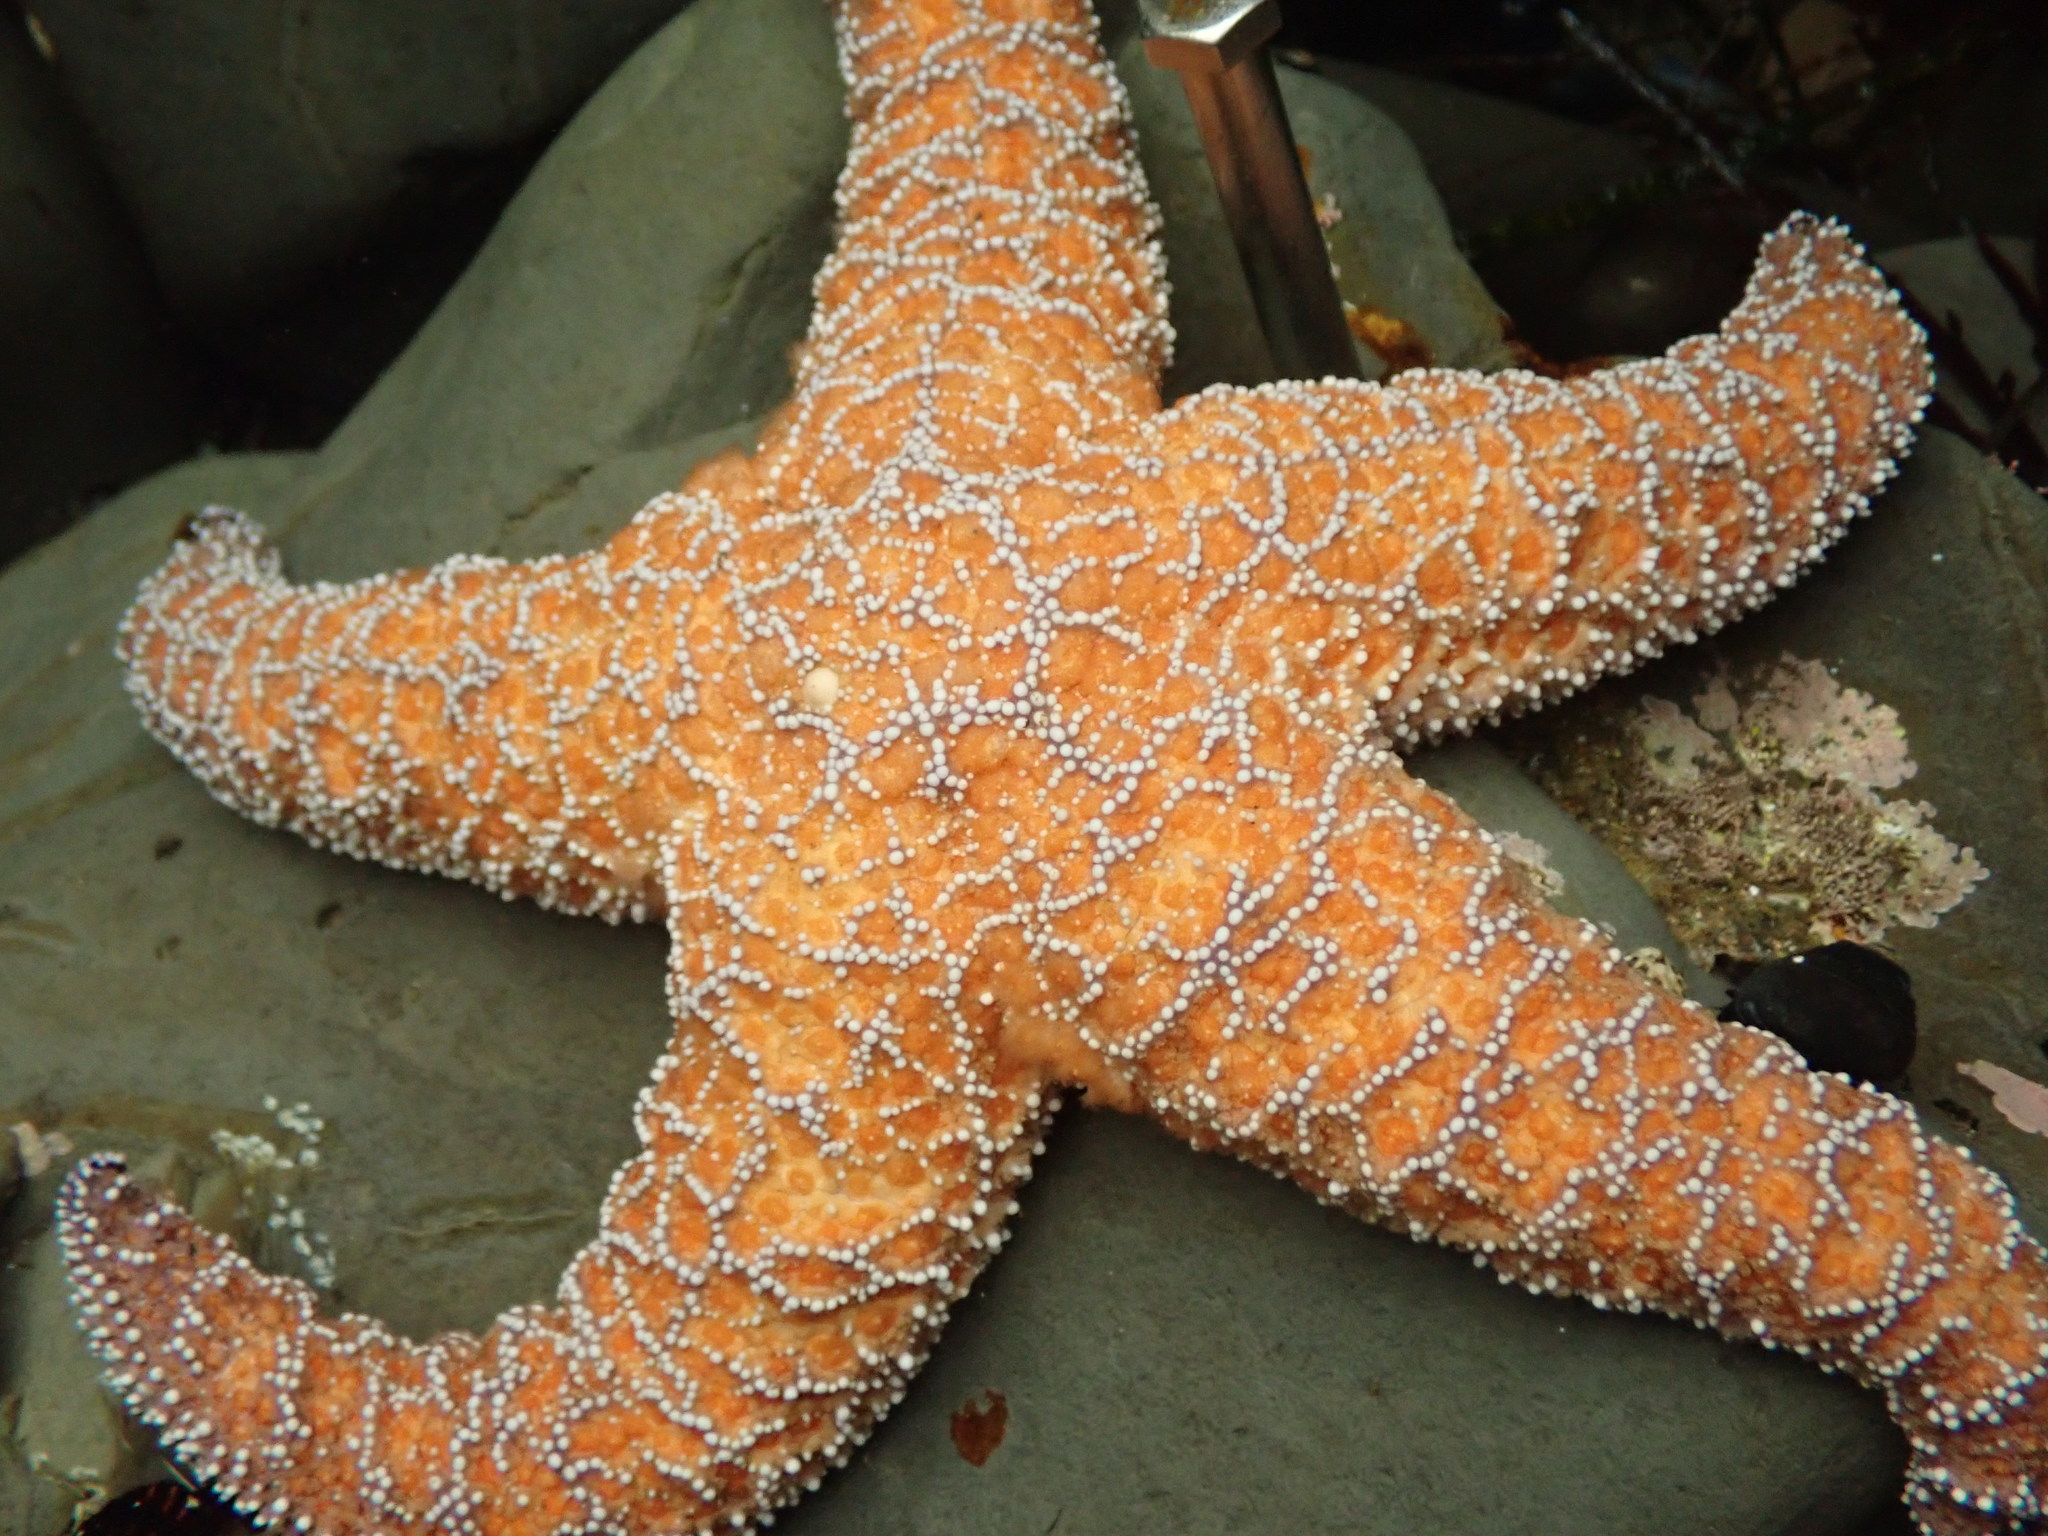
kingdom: Animalia
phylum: Echinodermata
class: Asteroidea
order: Forcipulatida
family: Asteriidae
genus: Pisaster
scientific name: Pisaster ochraceus
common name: Ochre stars
